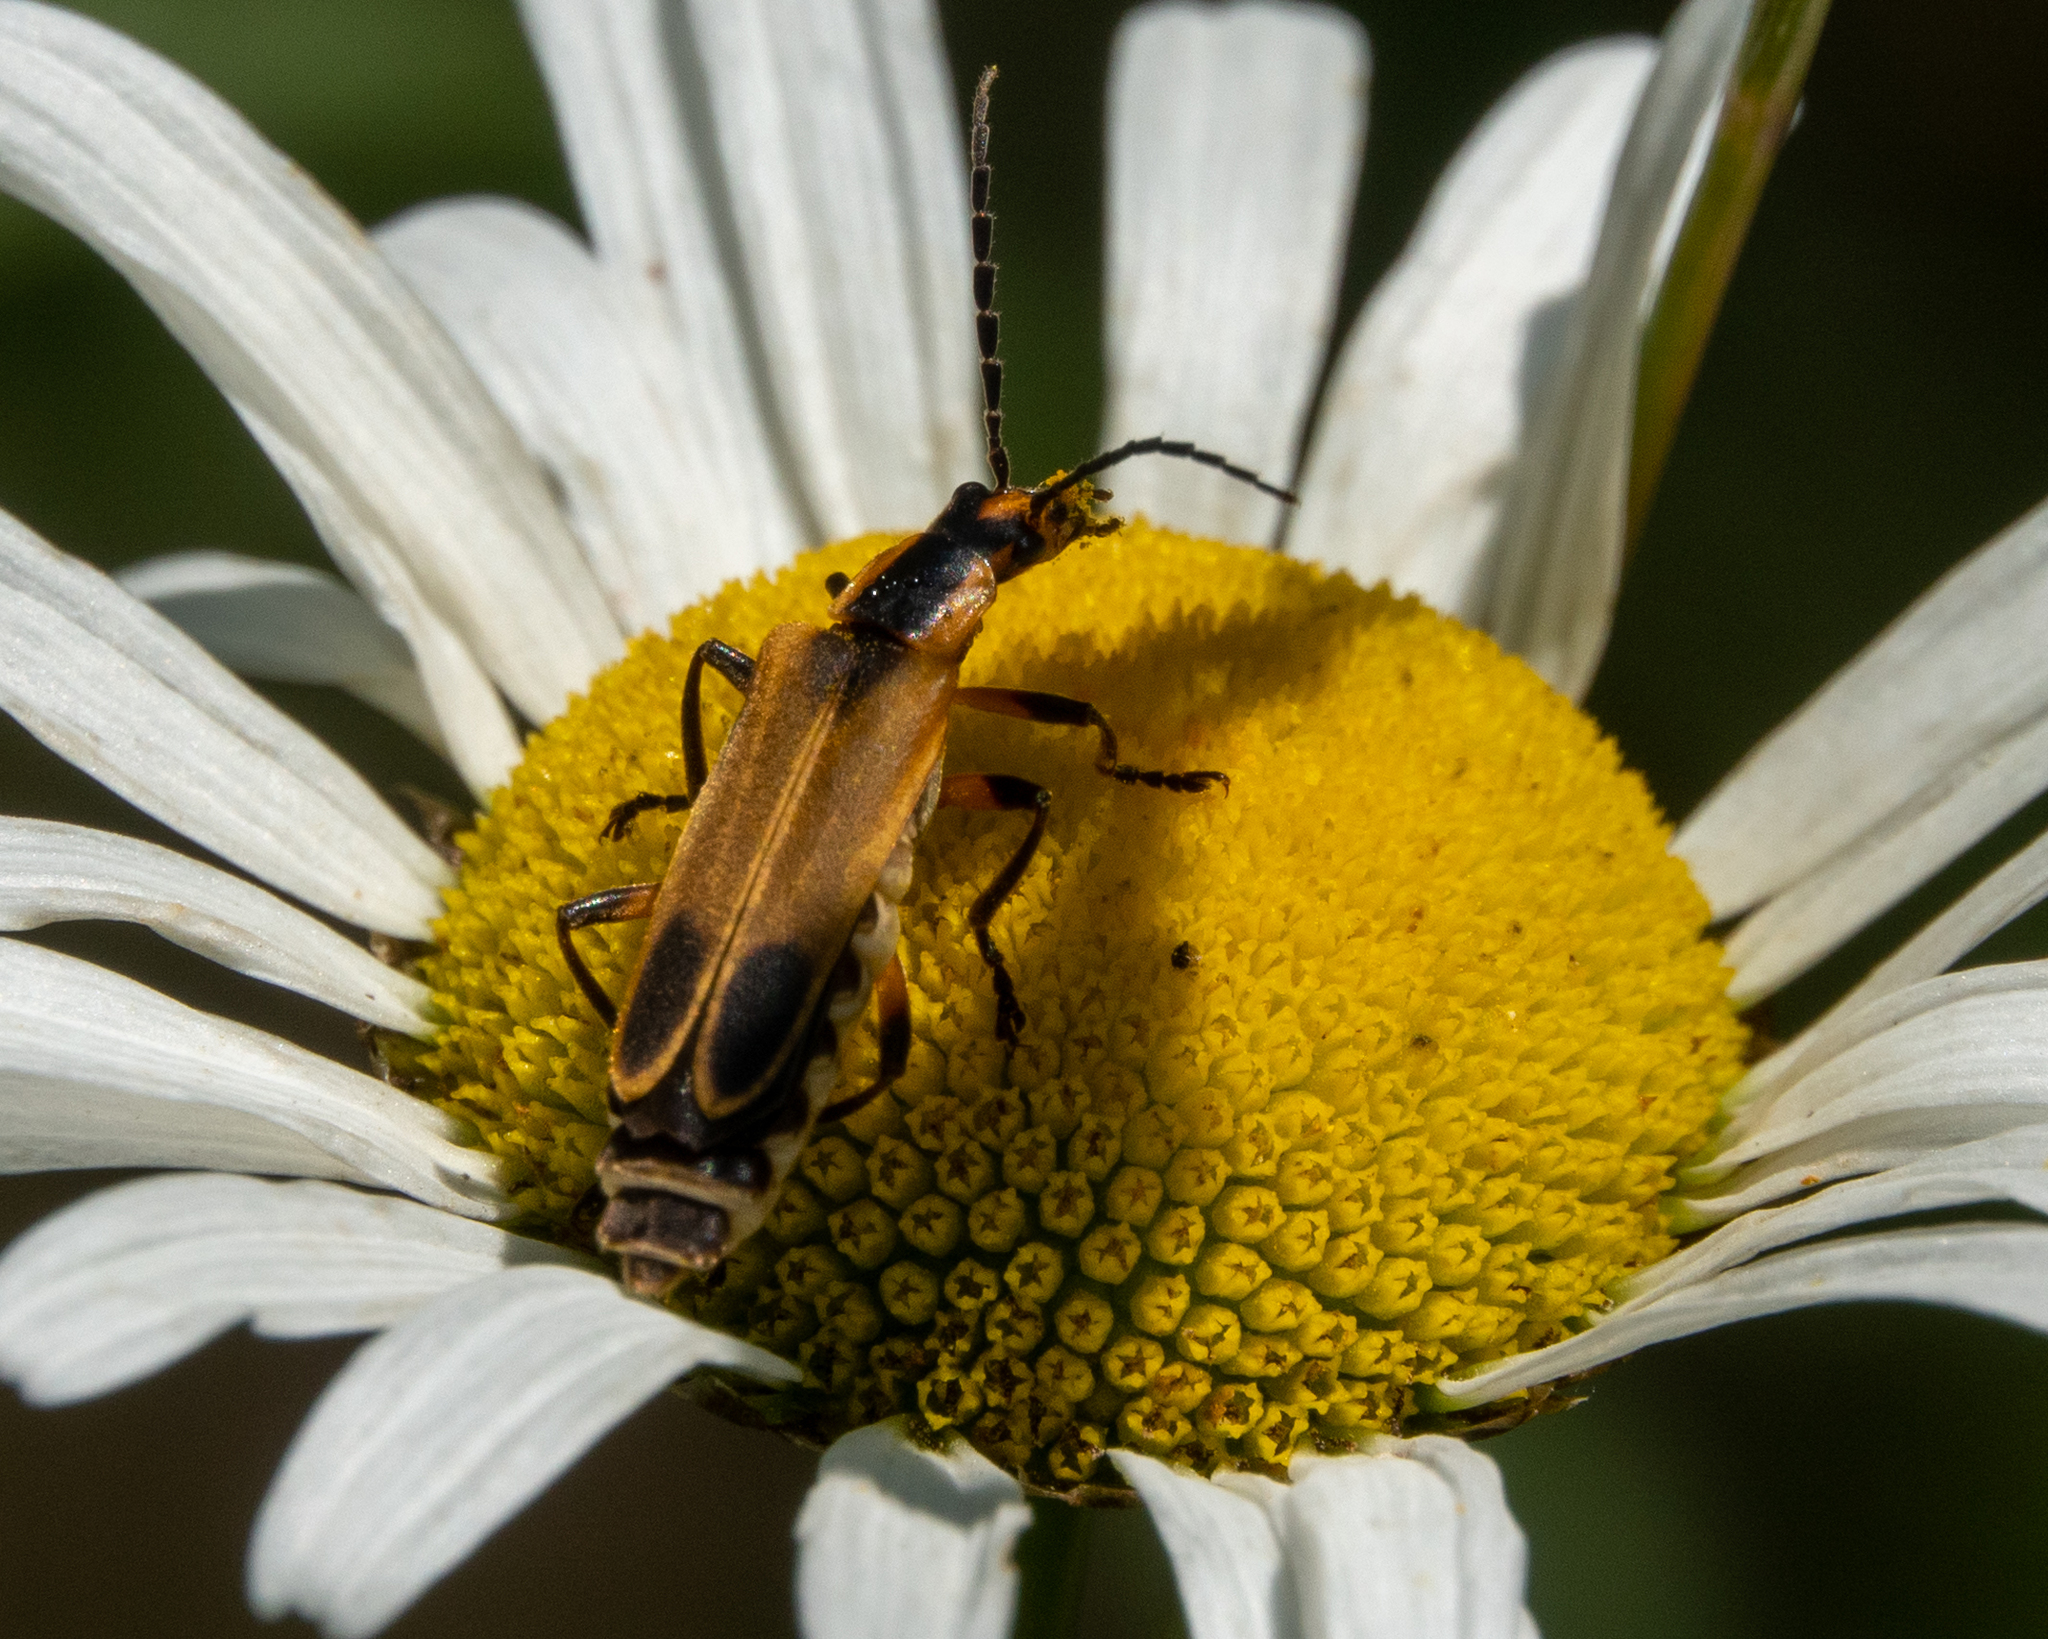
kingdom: Animalia
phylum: Arthropoda
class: Insecta
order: Coleoptera
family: Cantharidae
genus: Chauliognathus
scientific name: Chauliognathus marginatus
